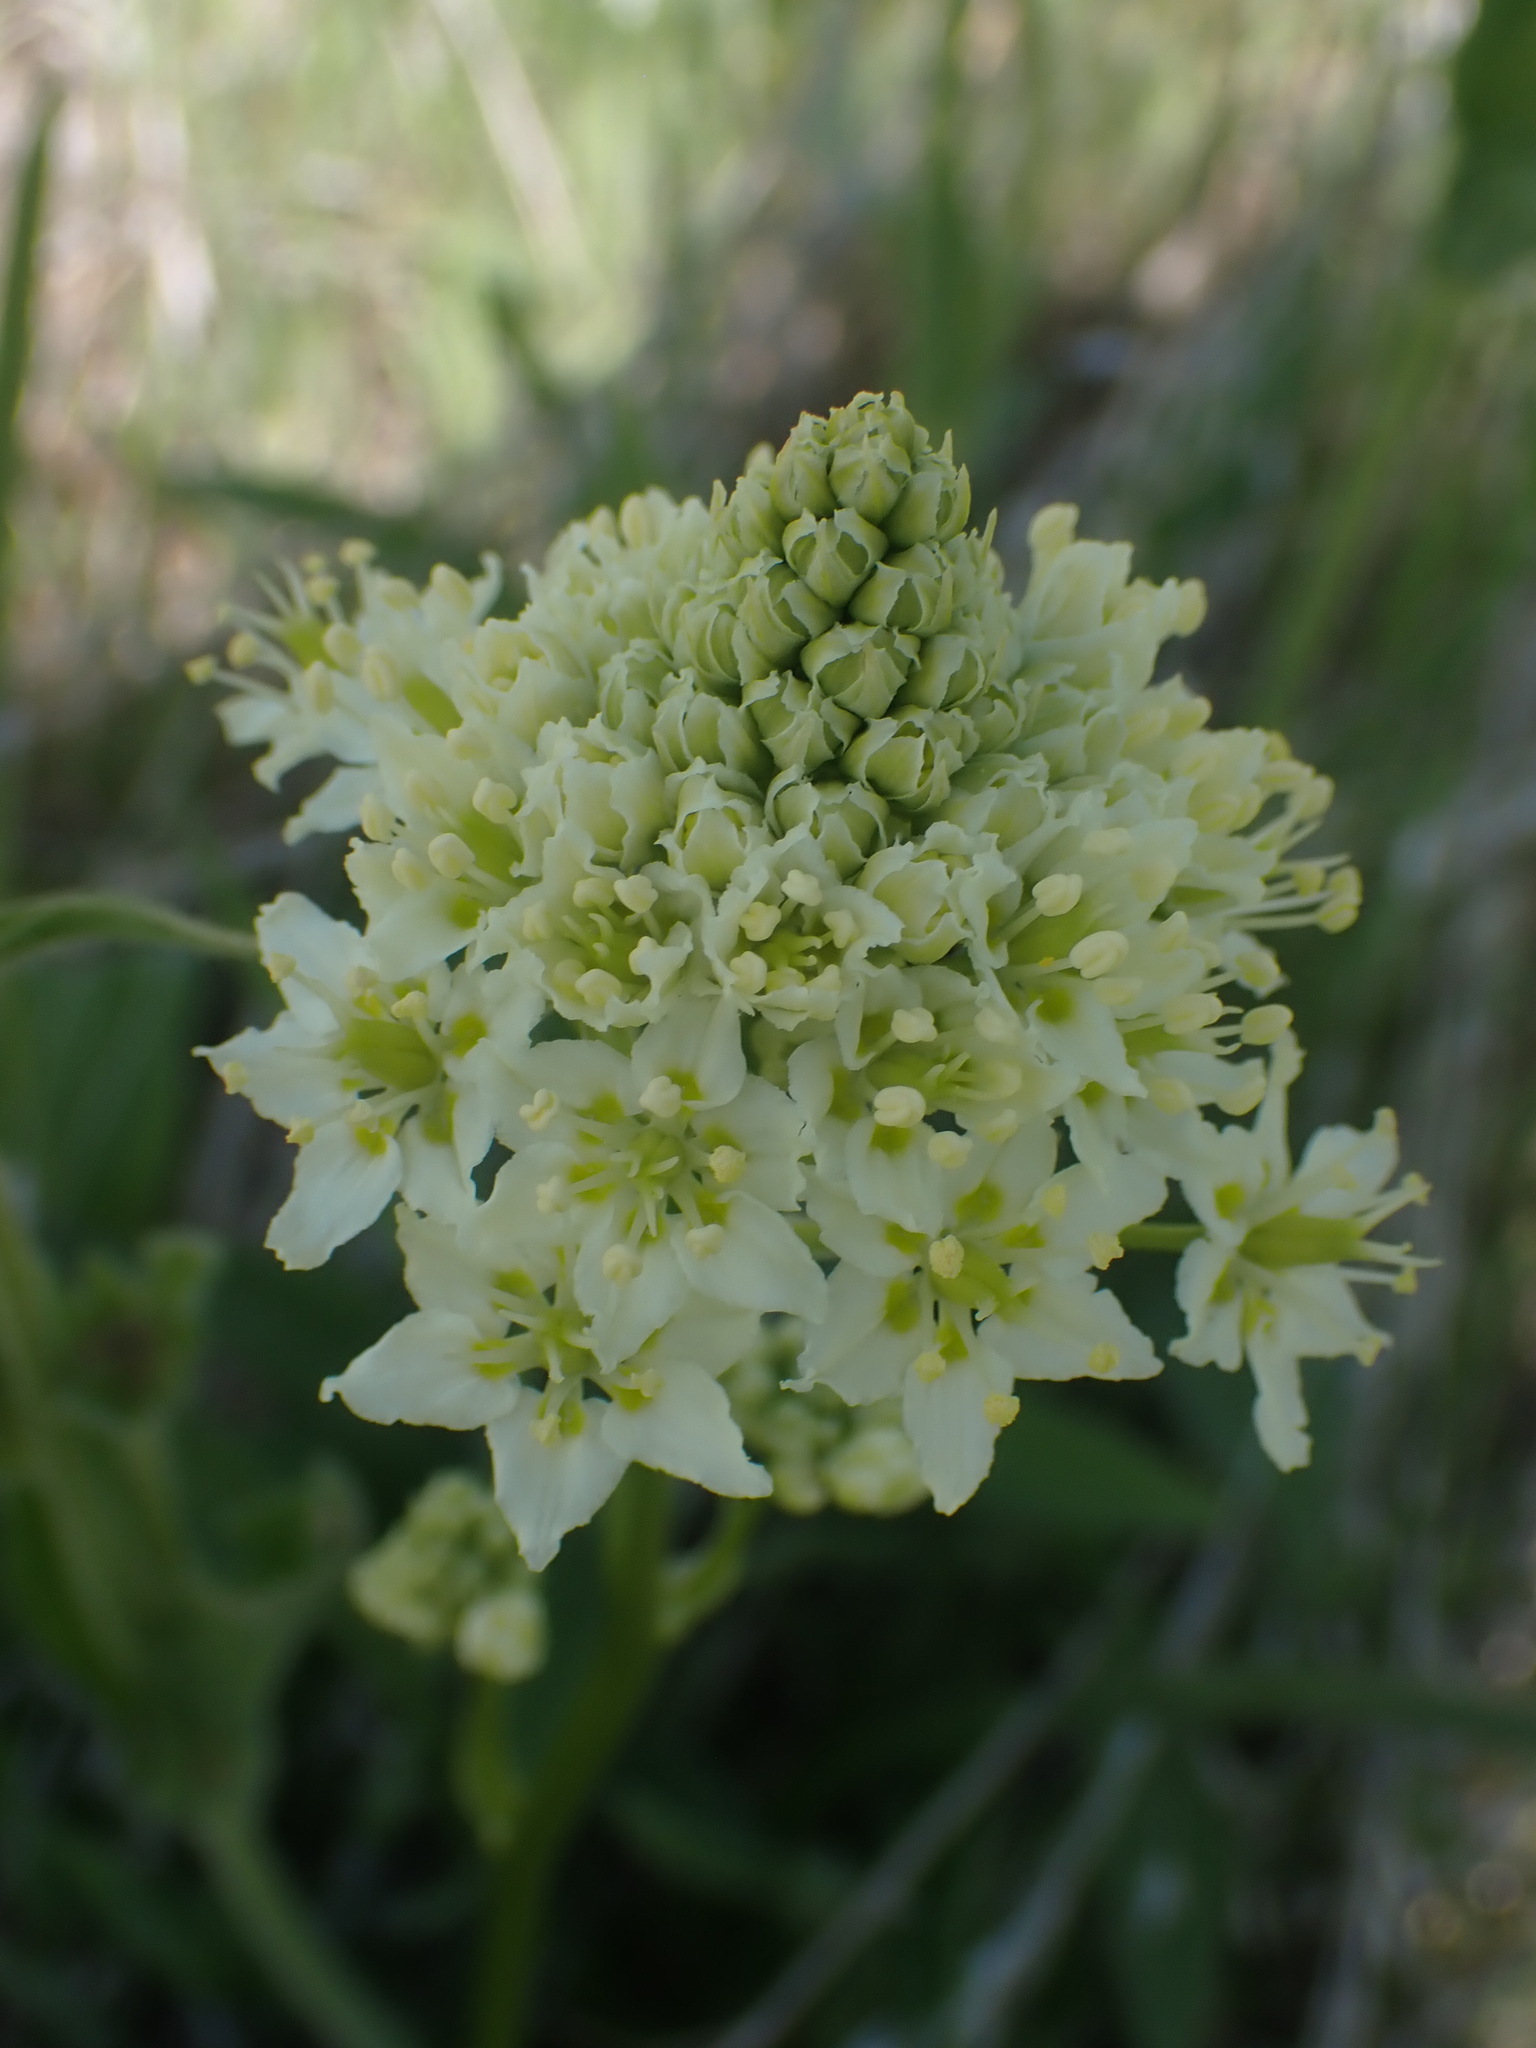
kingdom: Plantae
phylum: Tracheophyta
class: Liliopsida
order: Liliales
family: Melanthiaceae
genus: Toxicoscordion
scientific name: Toxicoscordion paniculatum
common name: Foothill death camas
